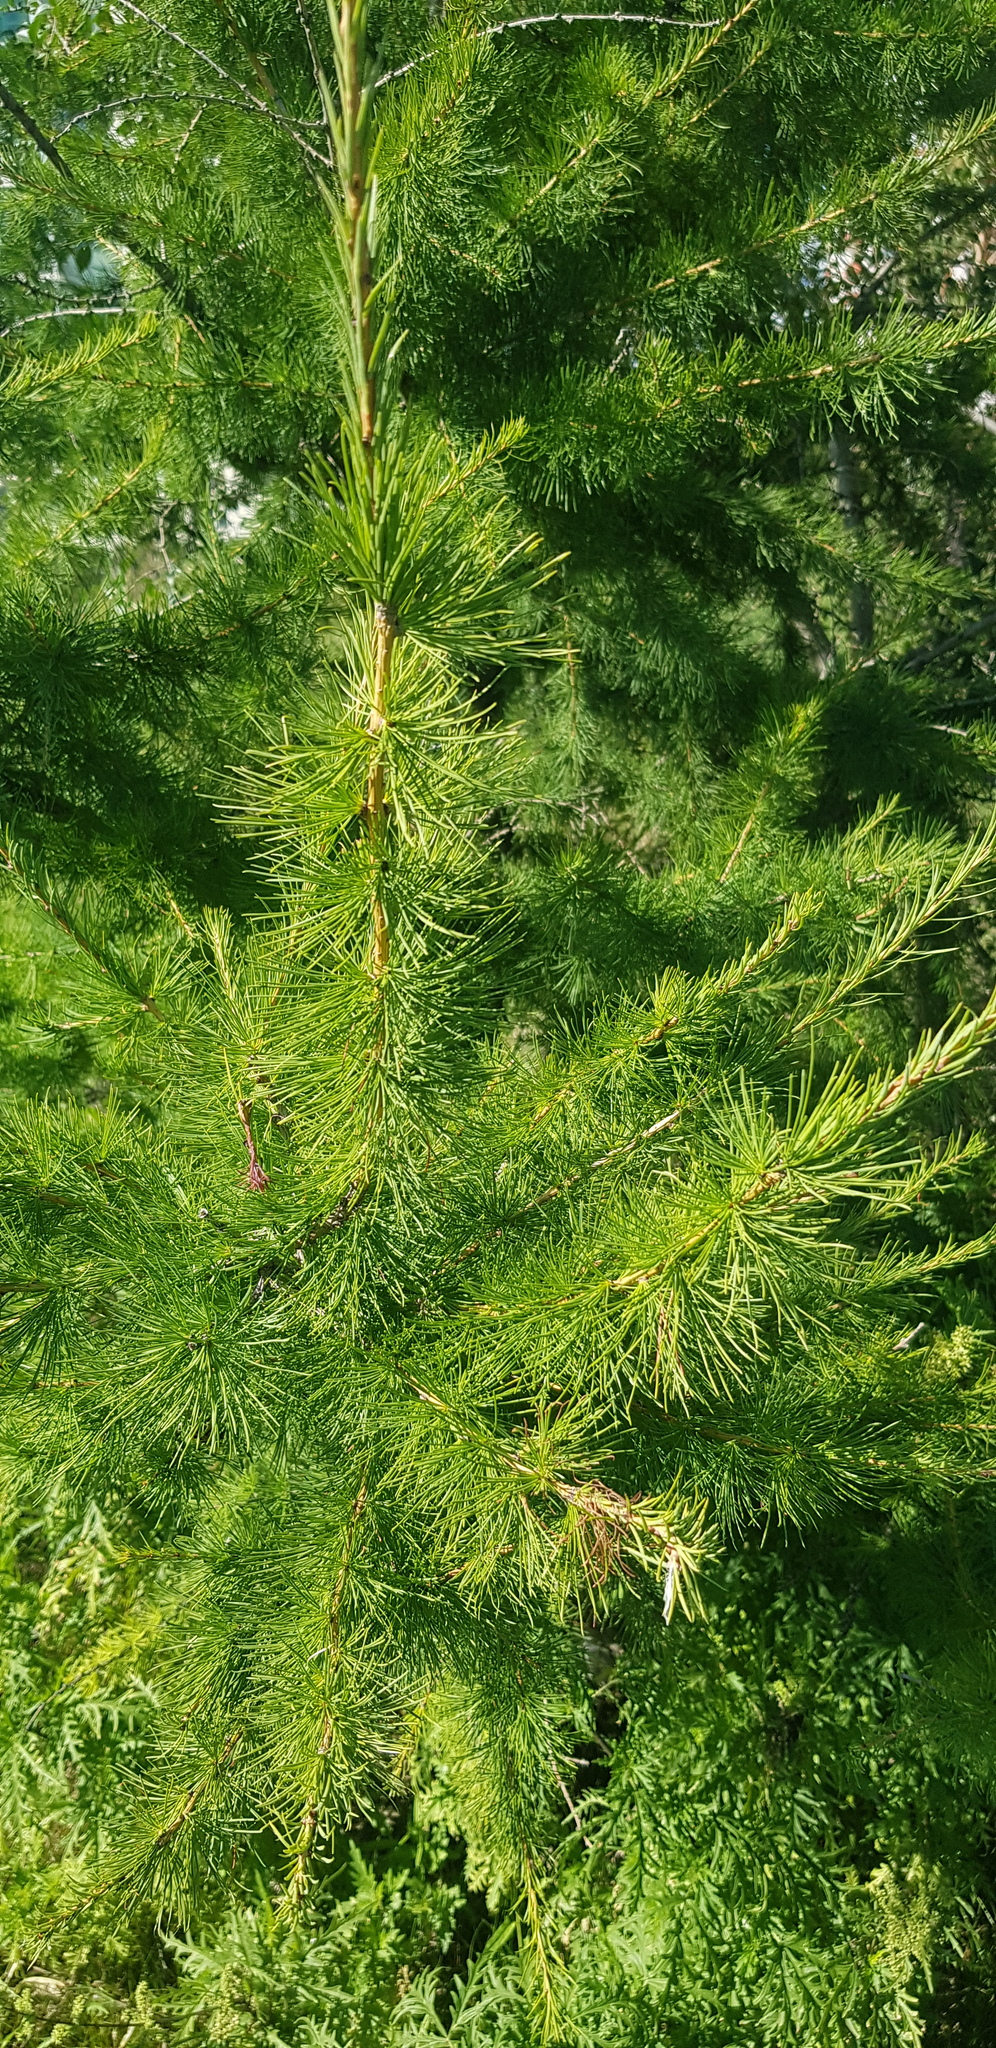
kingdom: Plantae
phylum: Tracheophyta
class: Pinopsida
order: Pinales
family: Pinaceae
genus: Larix
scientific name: Larix sibirica
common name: Siberian larch
